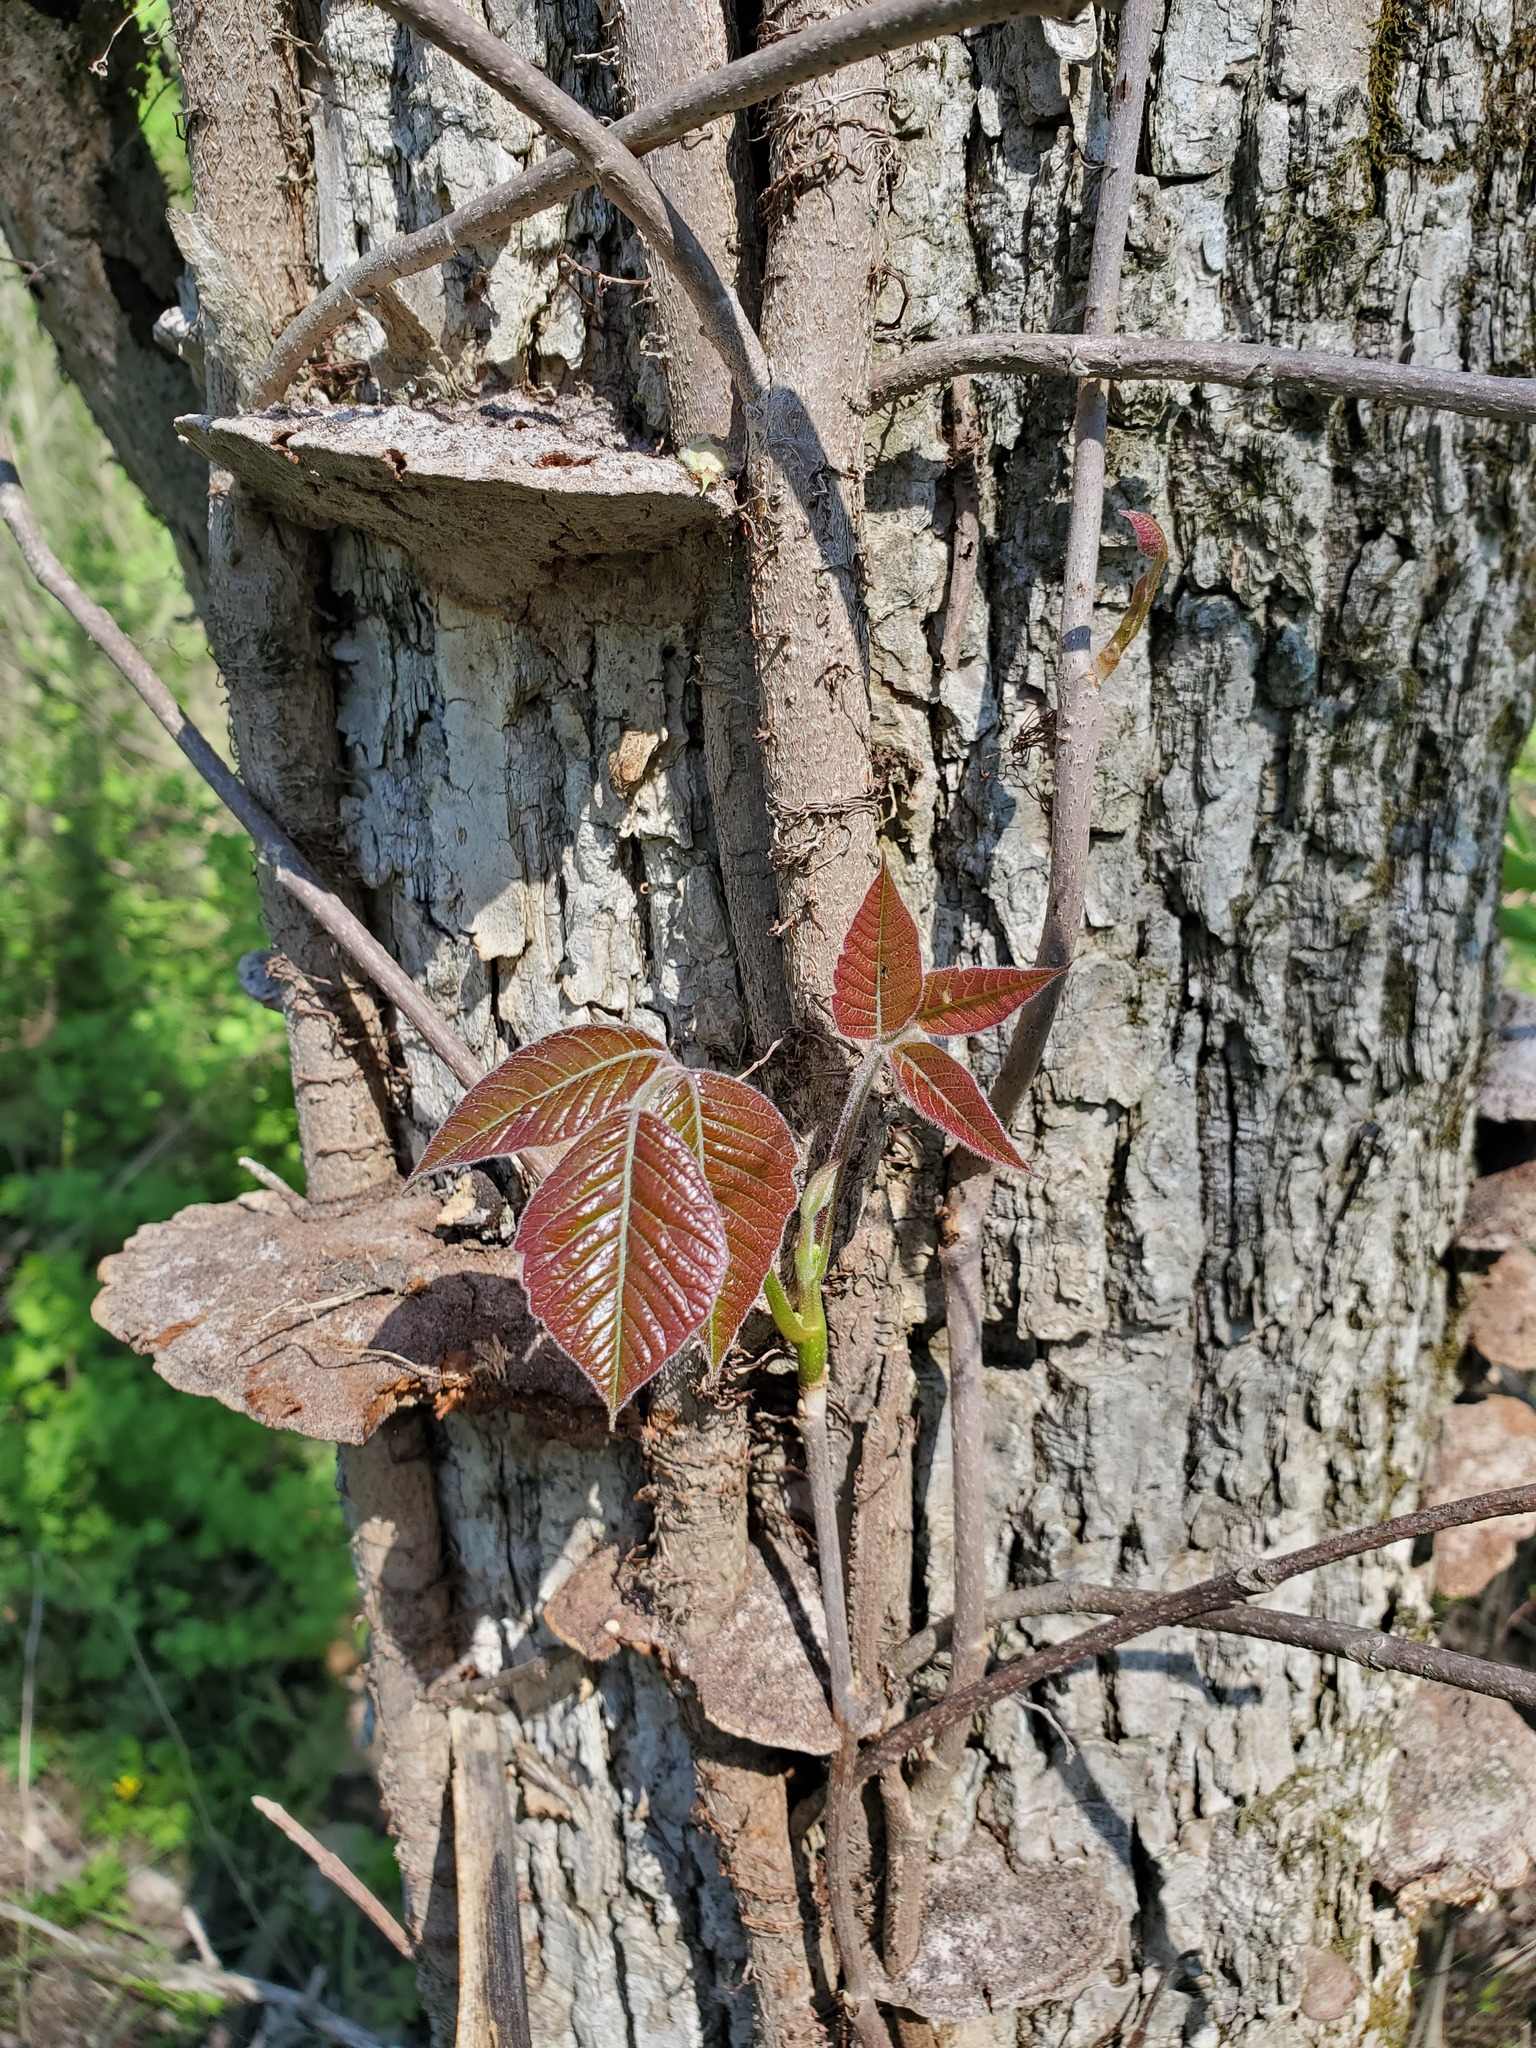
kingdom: Plantae
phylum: Tracheophyta
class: Magnoliopsida
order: Sapindales
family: Anacardiaceae
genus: Toxicodendron
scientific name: Toxicodendron radicans
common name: Poison ivy
